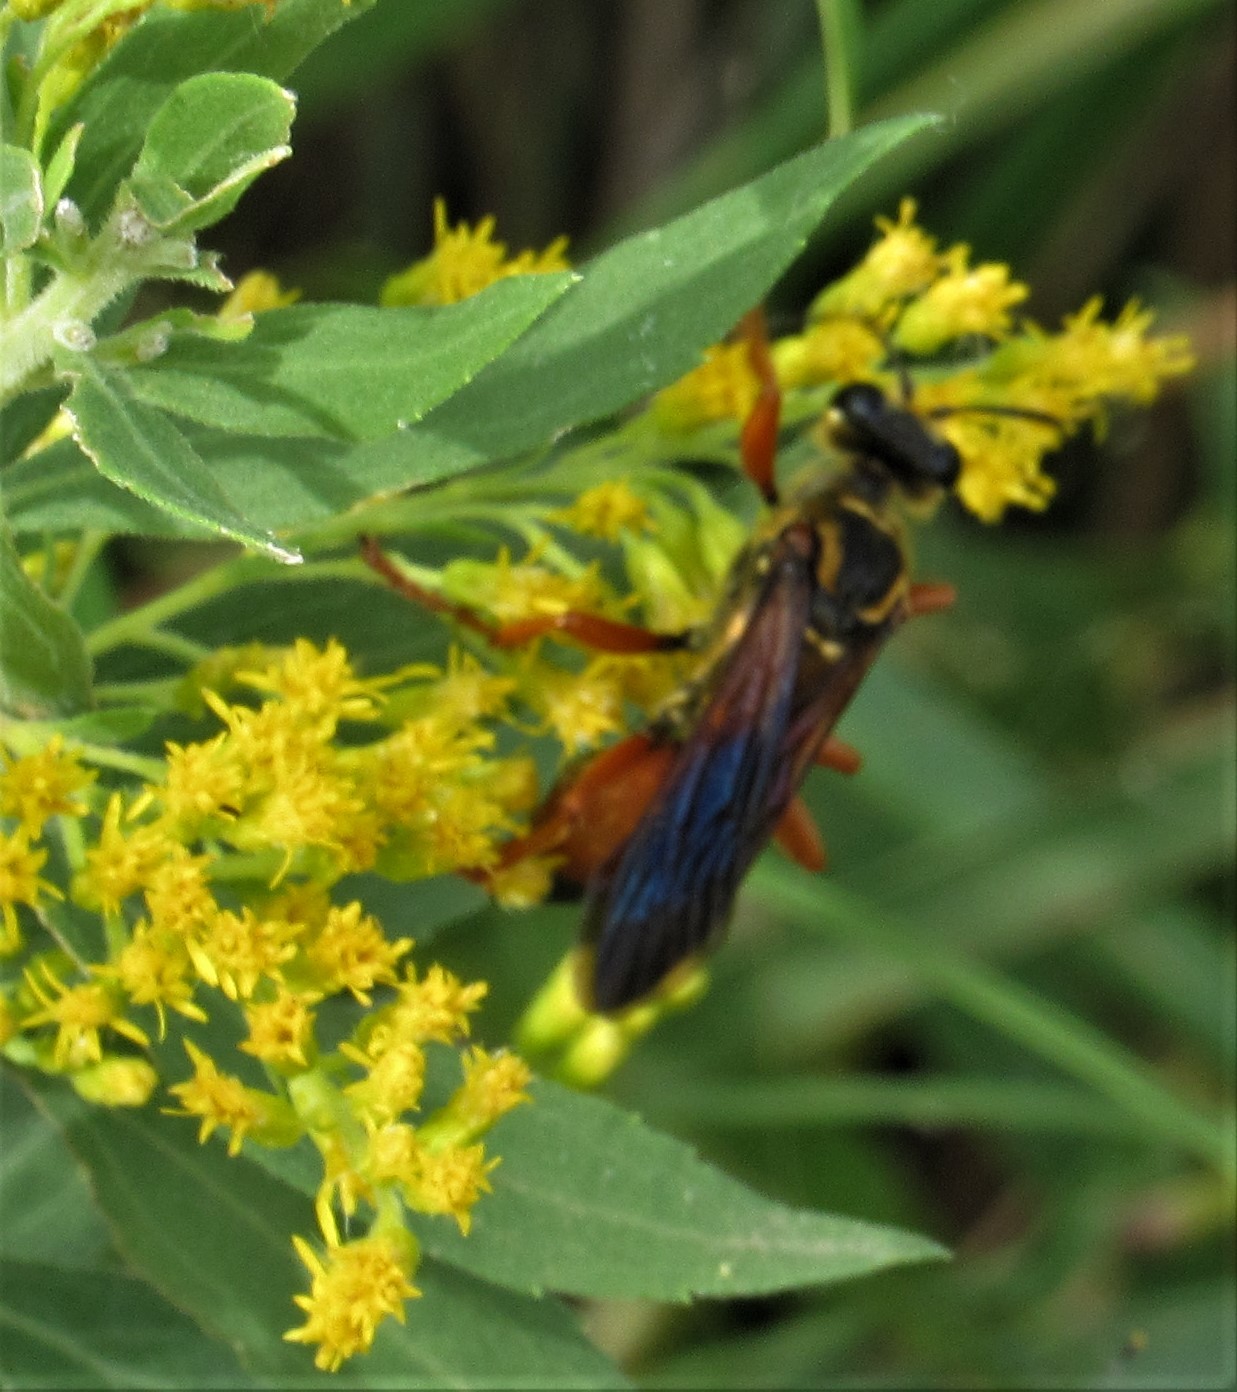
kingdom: Animalia
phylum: Arthropoda
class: Insecta
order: Hymenoptera
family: Sphecidae
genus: Sphex
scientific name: Sphex ichneumoneus
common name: Great golden digger wasp
